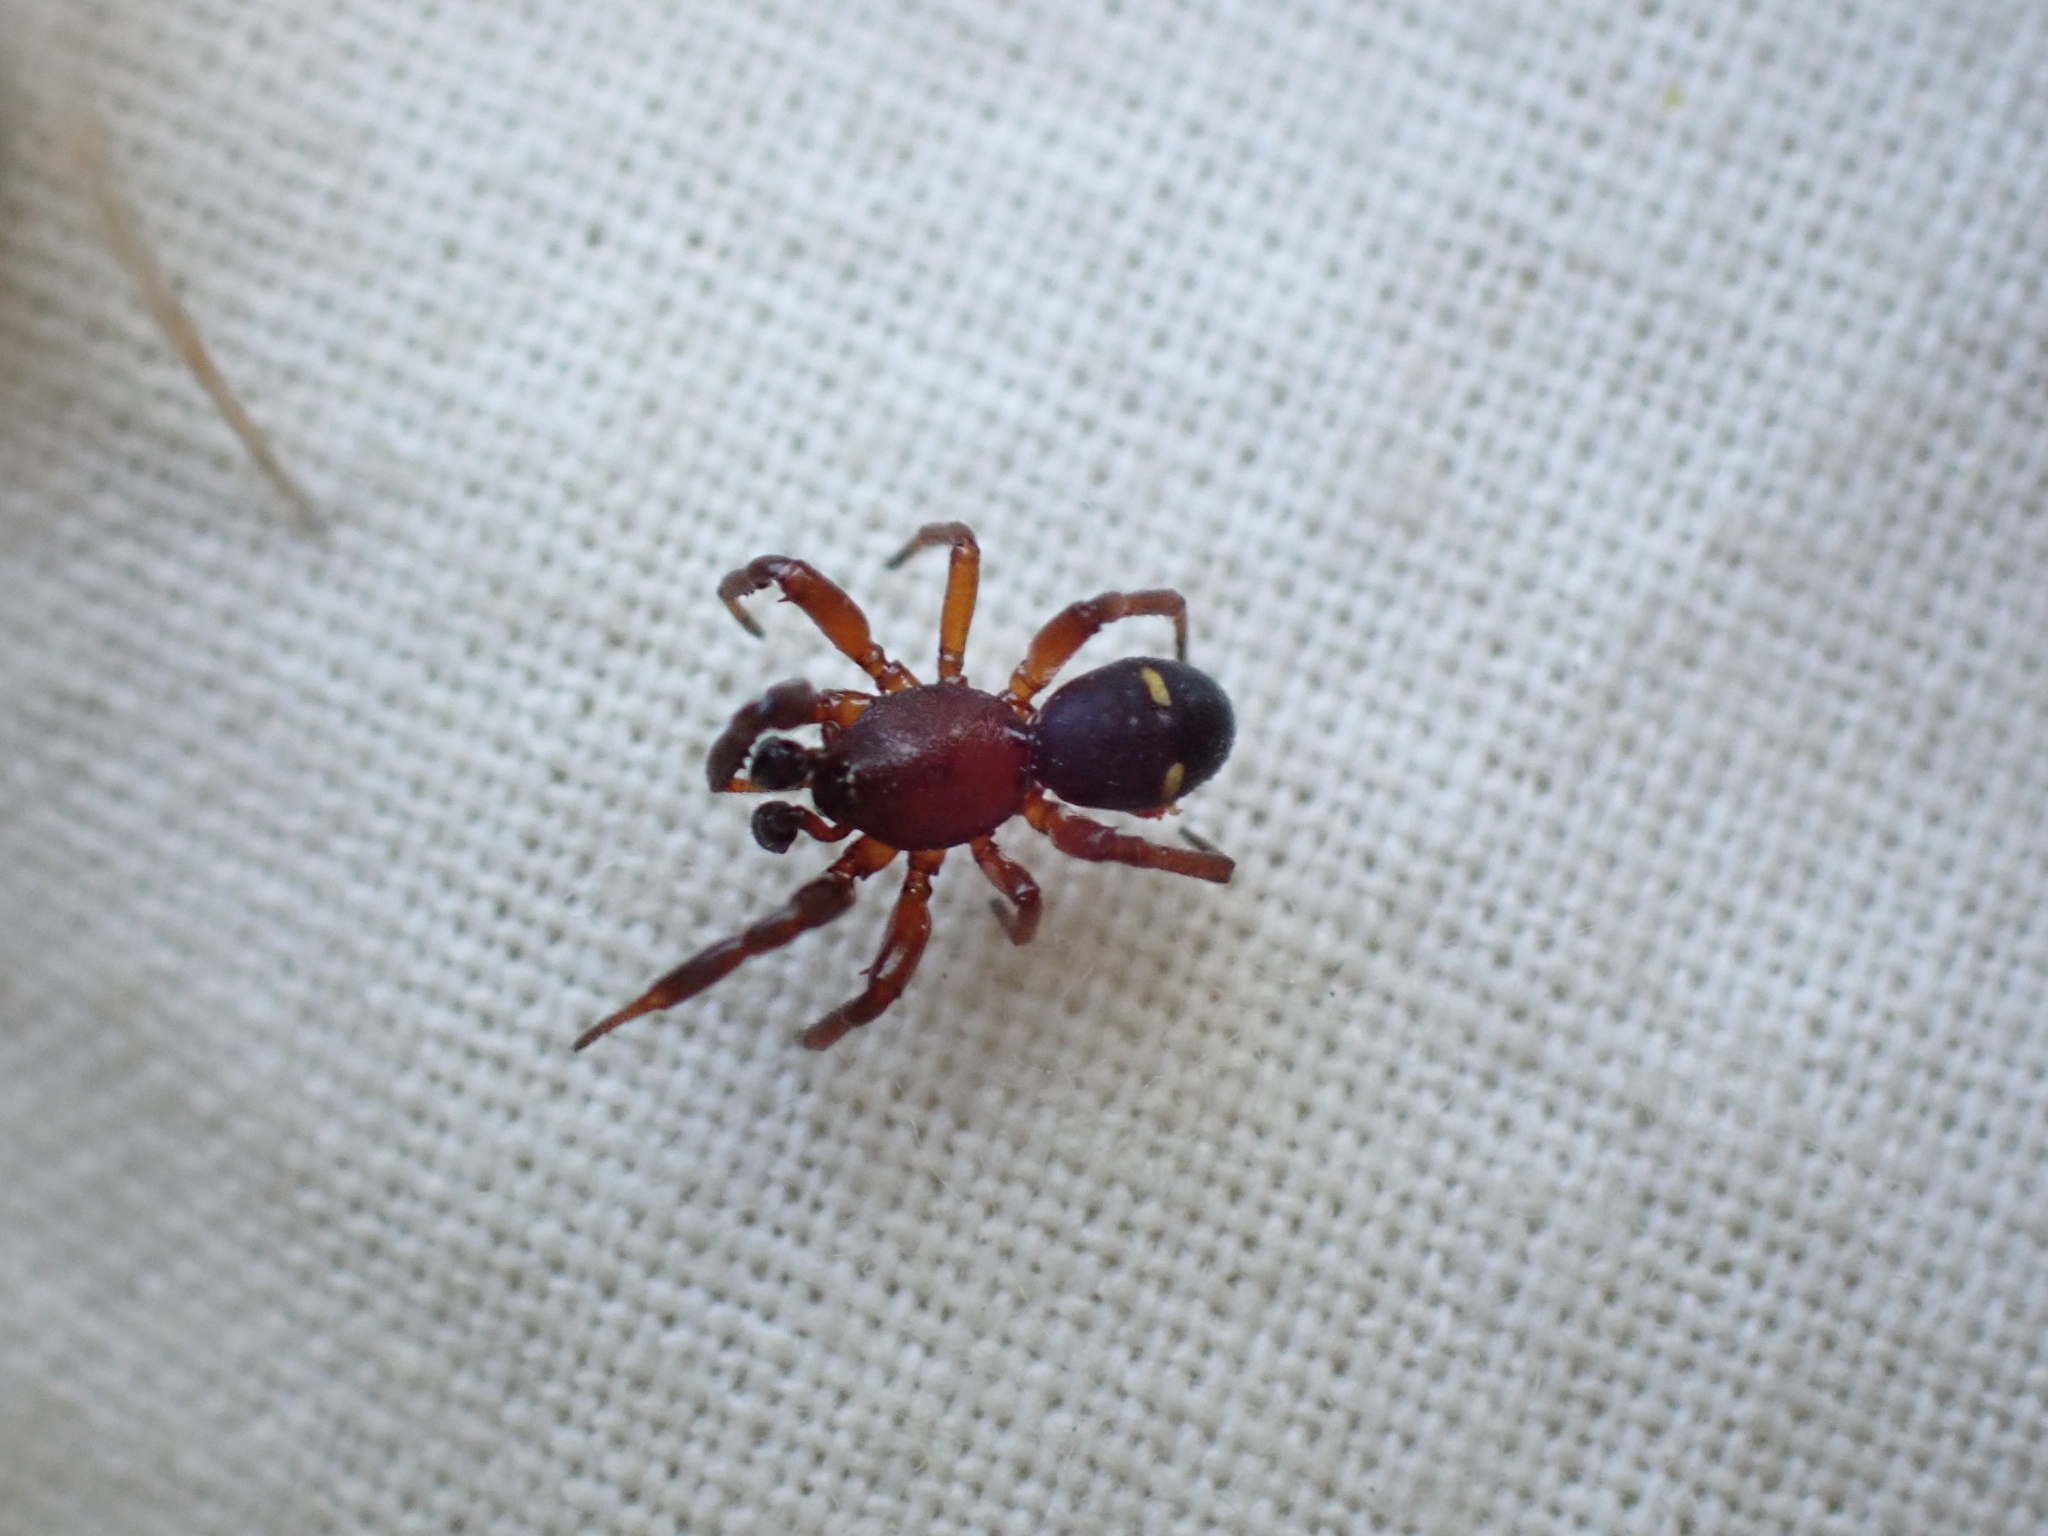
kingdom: Animalia
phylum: Arthropoda
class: Arachnida
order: Araneae
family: Theridiidae
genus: Asagena
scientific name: Asagena americana
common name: Two-spotted cobweb spider
